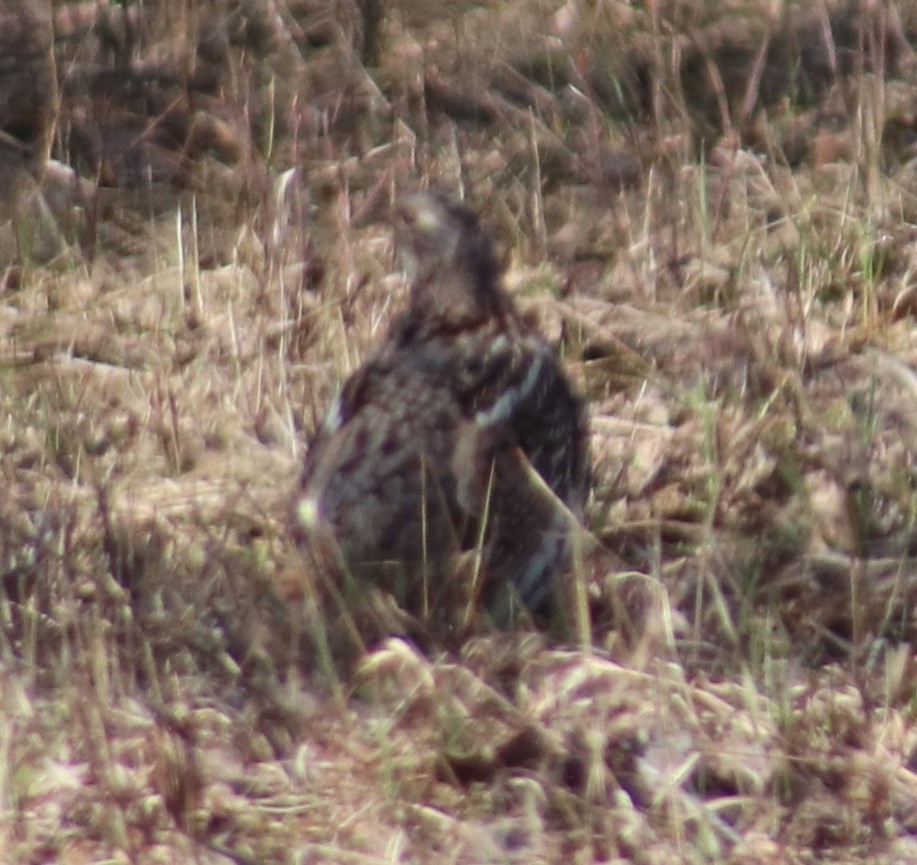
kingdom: Animalia
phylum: Chordata
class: Aves
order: Galliformes
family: Phasianidae
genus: Bonasa
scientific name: Bonasa umbellus
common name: Ruffed grouse
